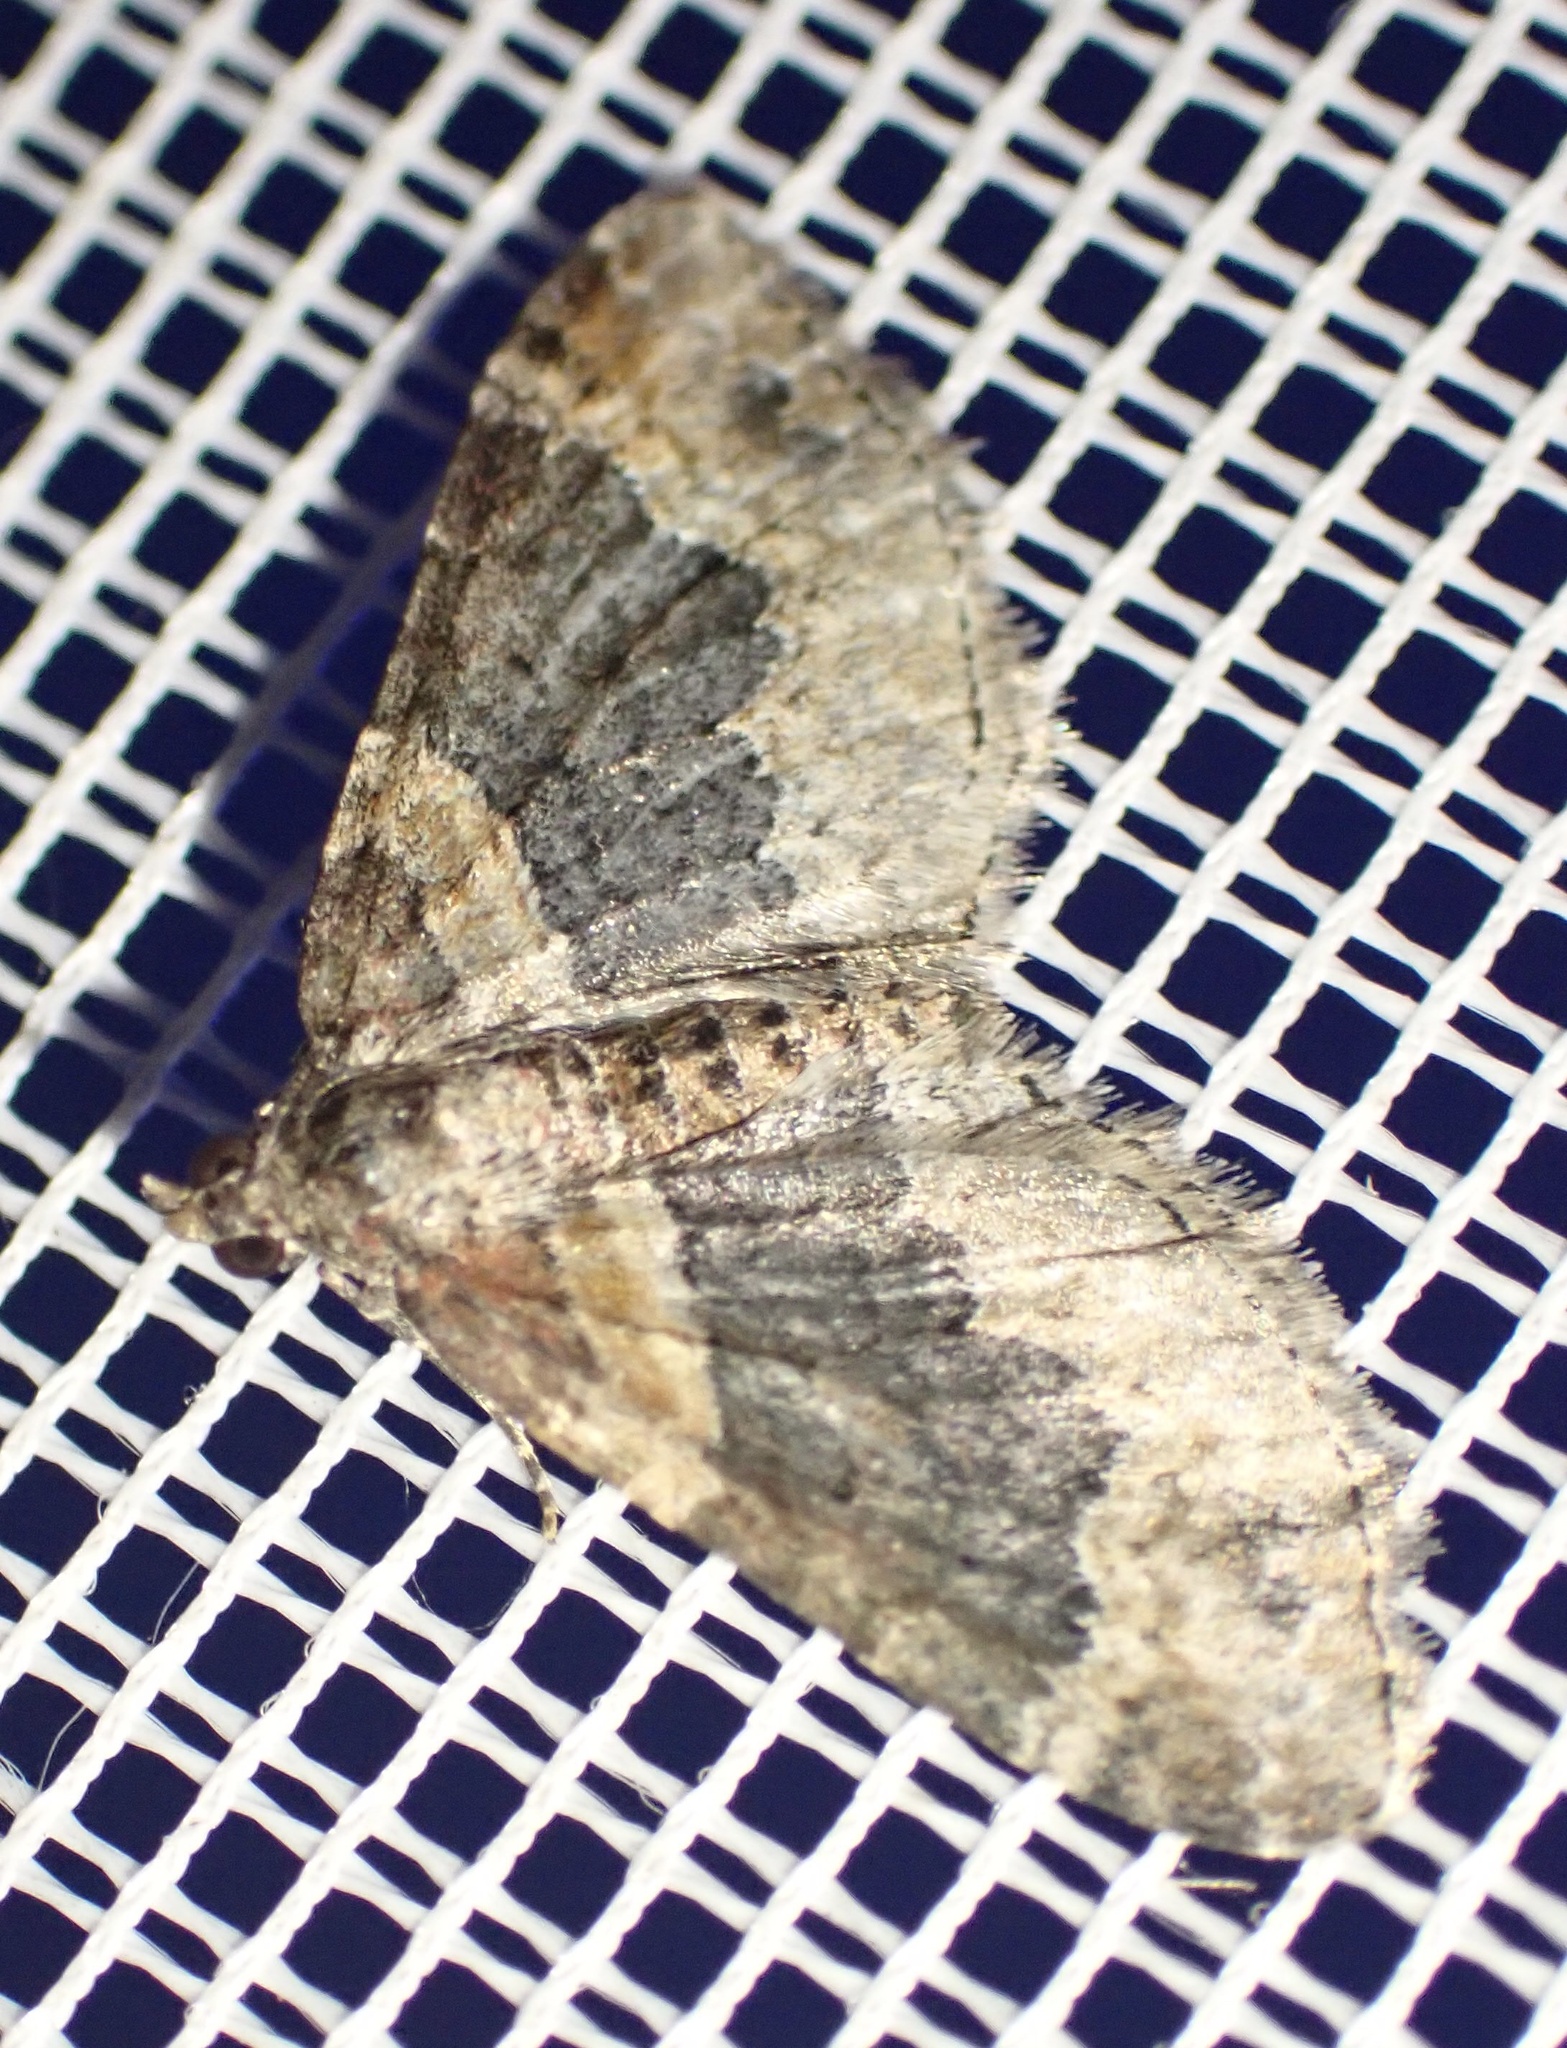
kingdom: Animalia
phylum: Arthropoda
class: Insecta
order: Lepidoptera
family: Geometridae
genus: Xanthorhoe
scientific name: Xanthorhoe ferrugata
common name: Dark-barred twin-spot carpet
